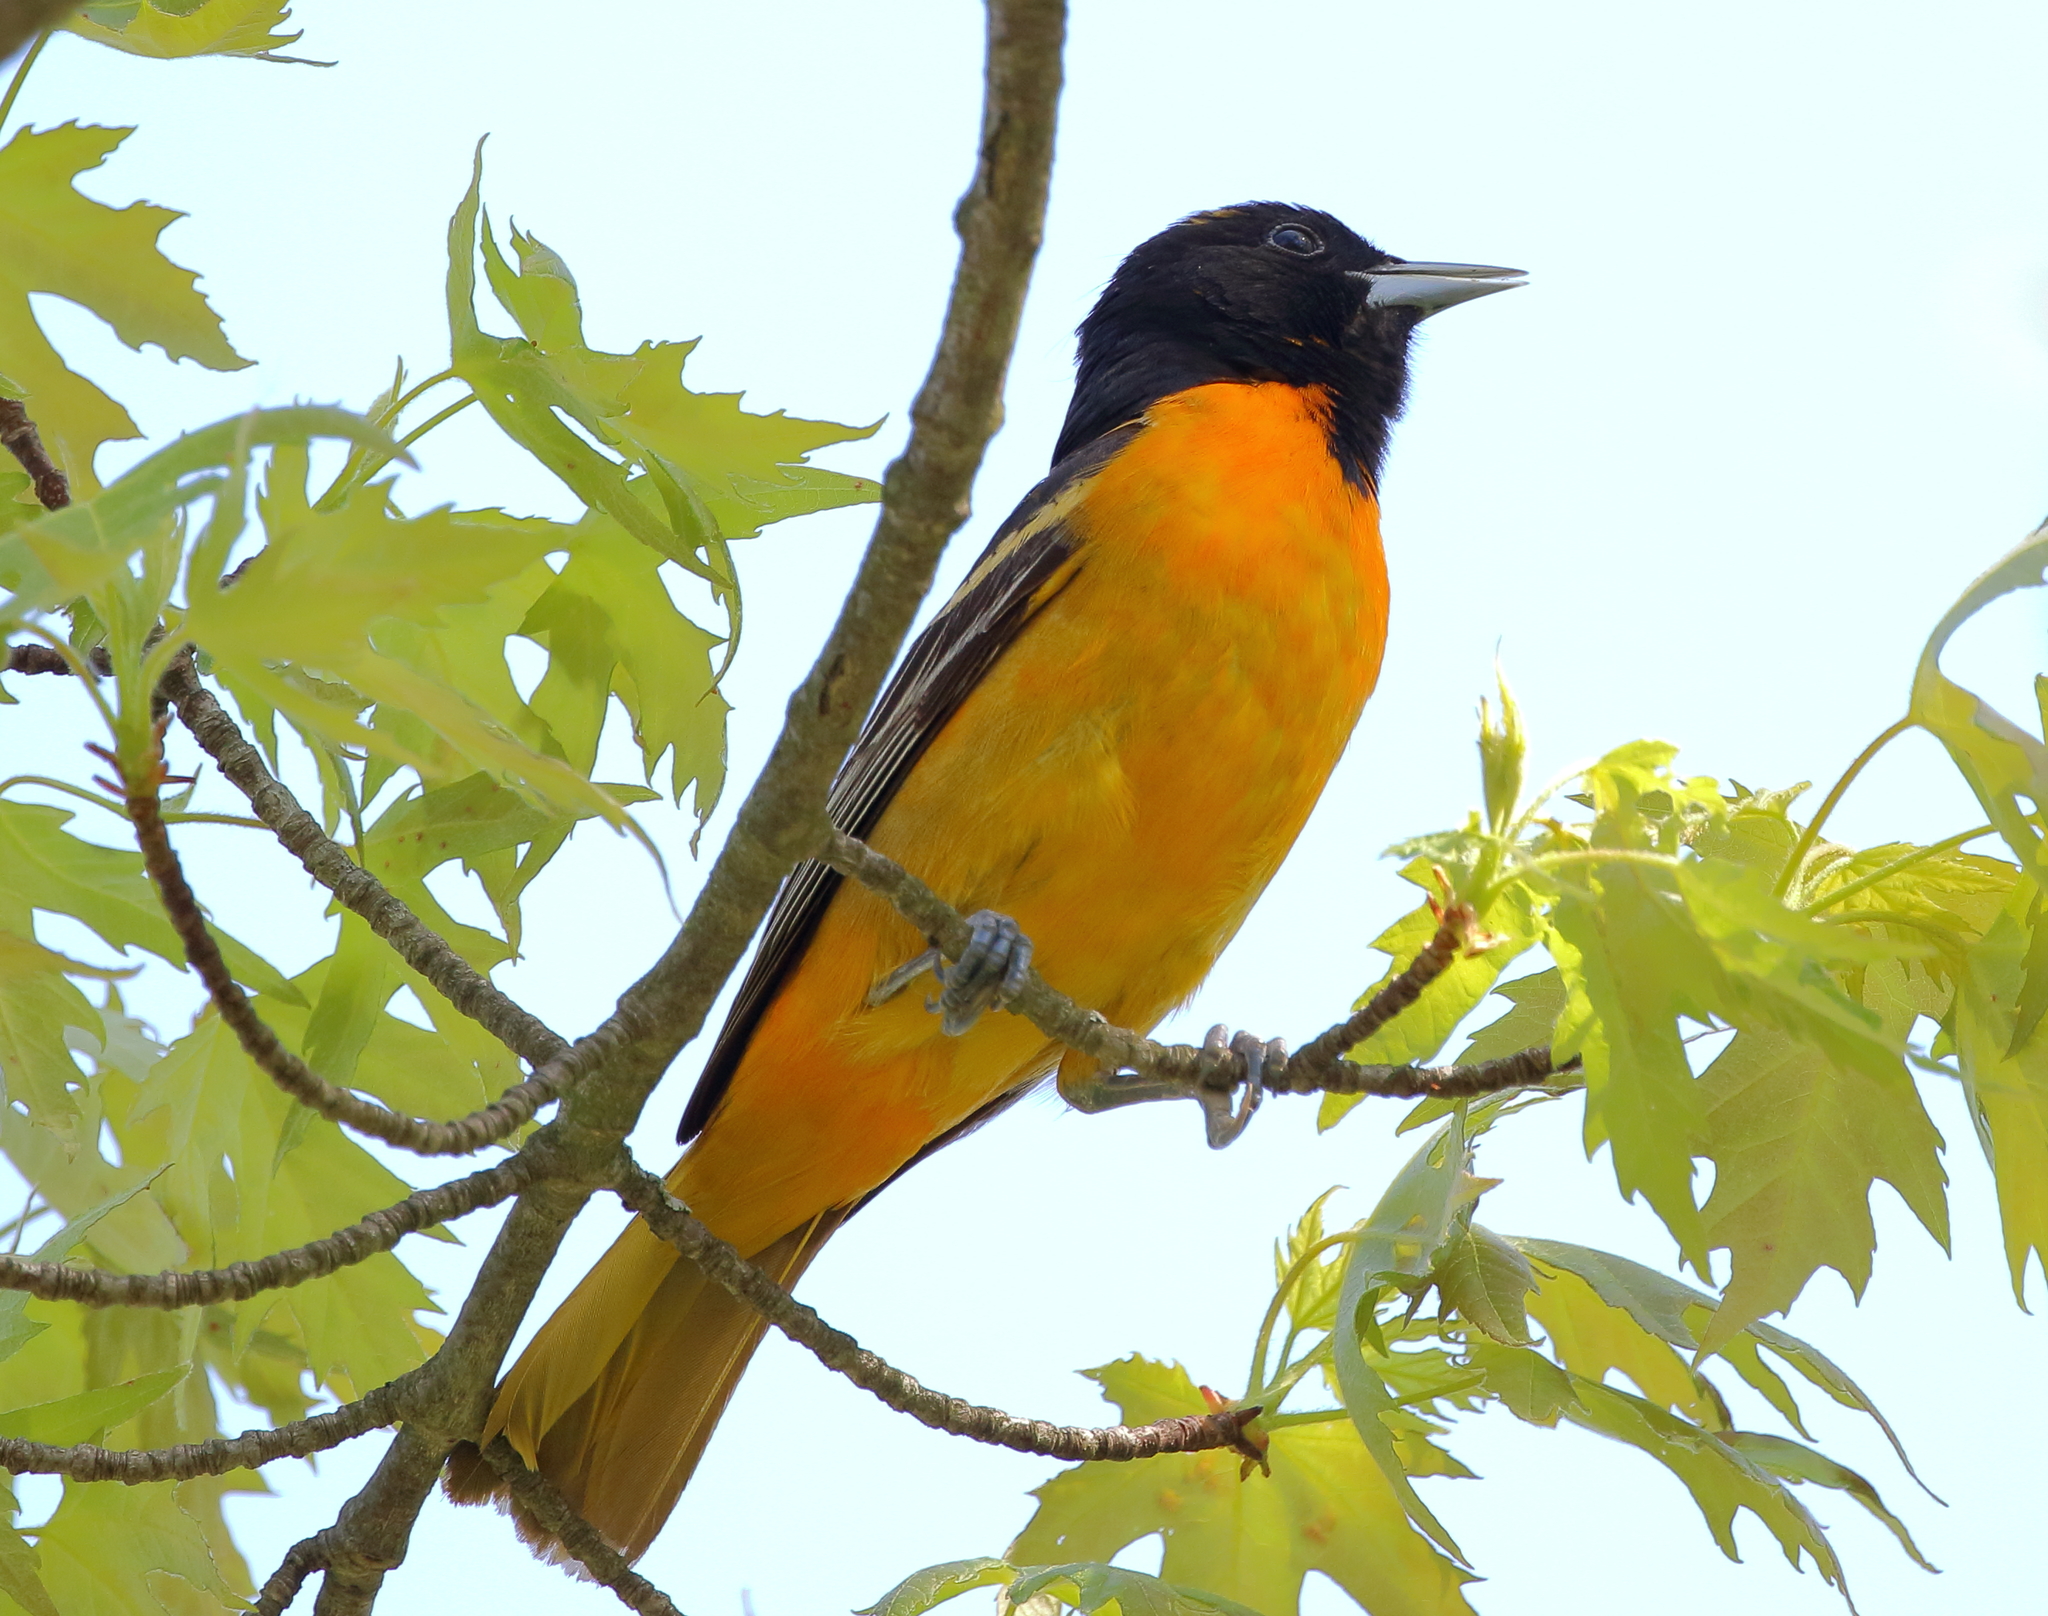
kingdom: Animalia
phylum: Chordata
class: Aves
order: Passeriformes
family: Icteridae
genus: Icterus
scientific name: Icterus galbula
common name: Baltimore oriole
